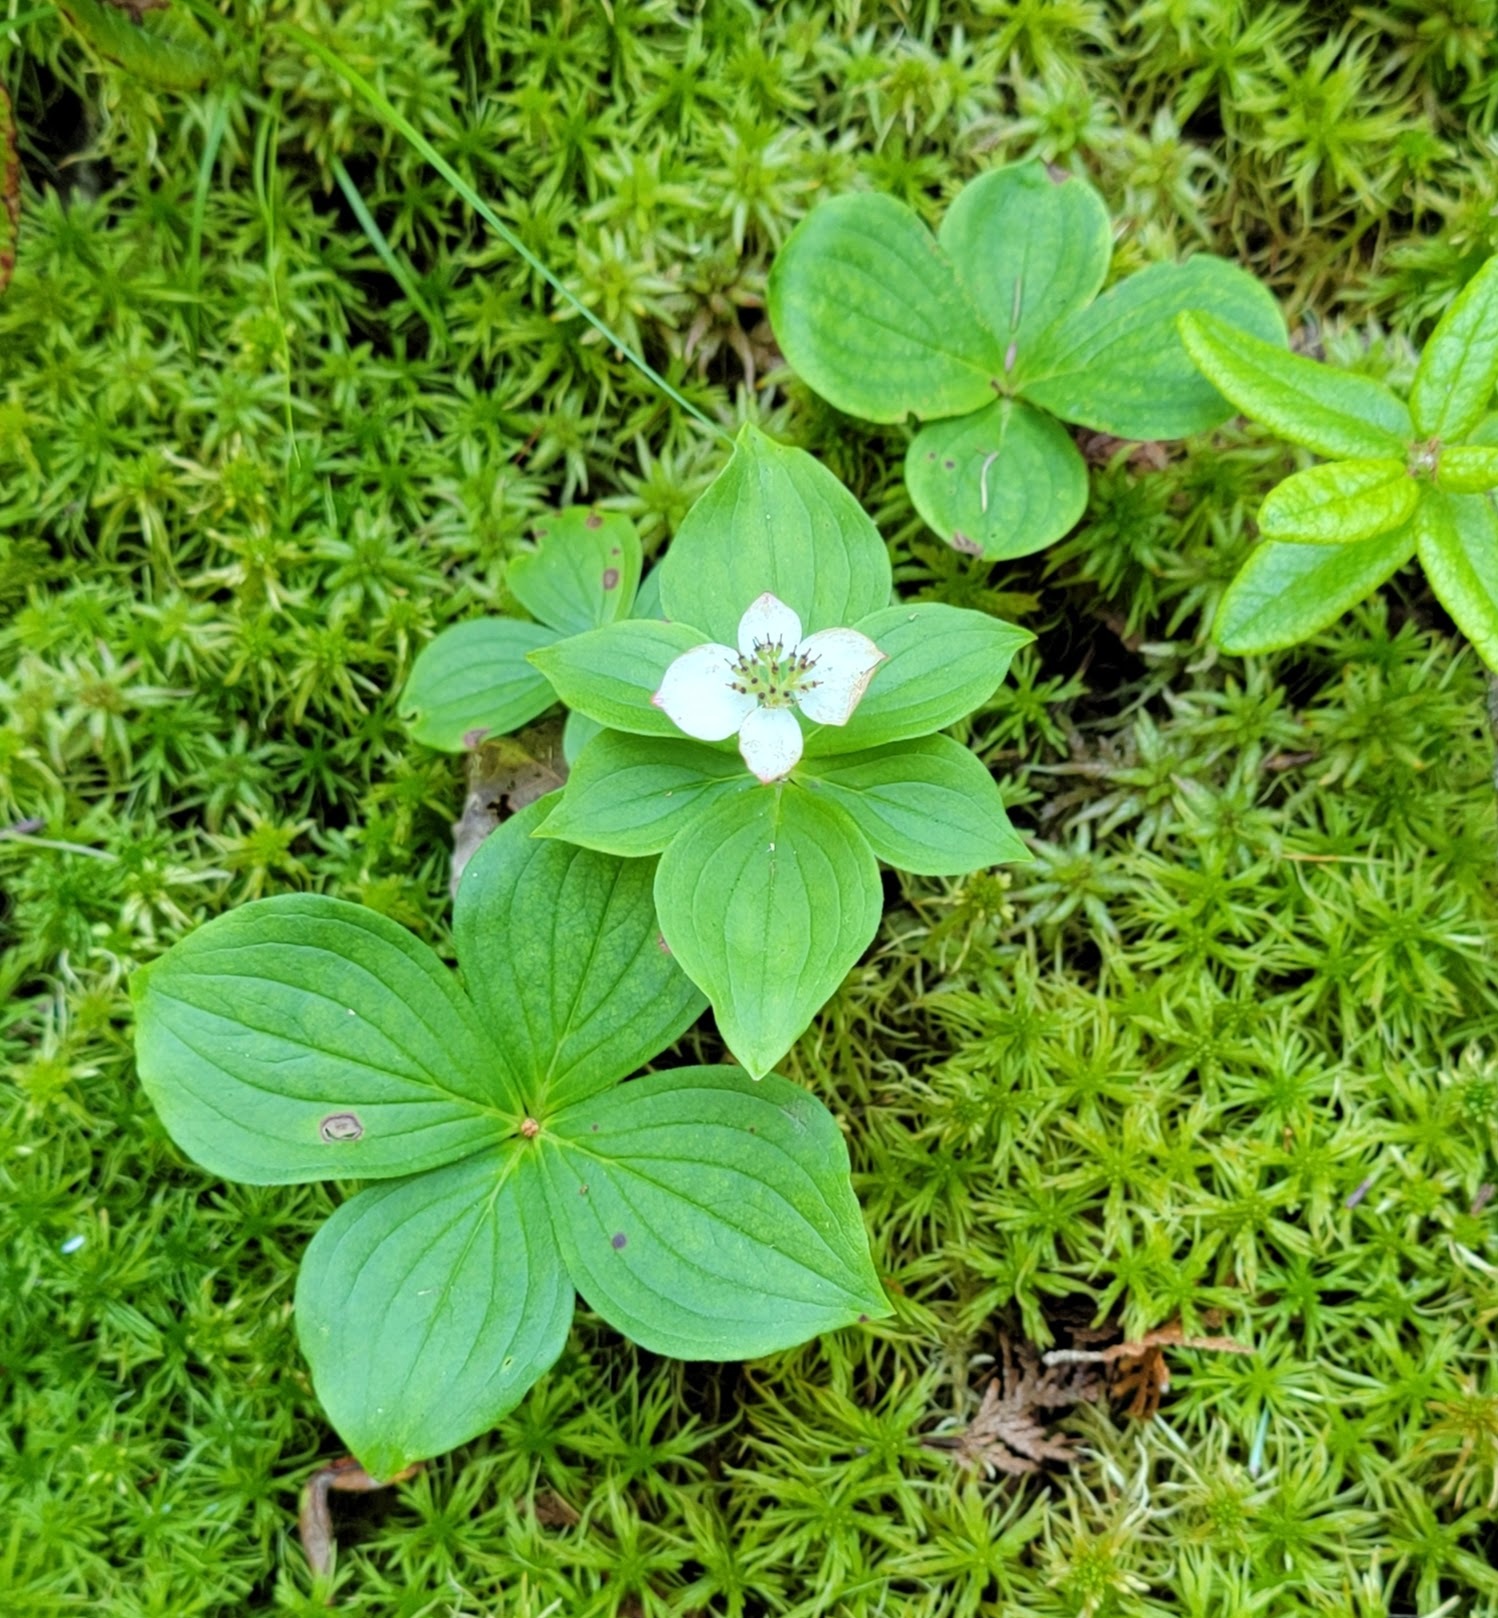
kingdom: Plantae
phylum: Tracheophyta
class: Magnoliopsida
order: Cornales
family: Cornaceae
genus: Cornus
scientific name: Cornus canadensis
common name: Creeping dogwood
